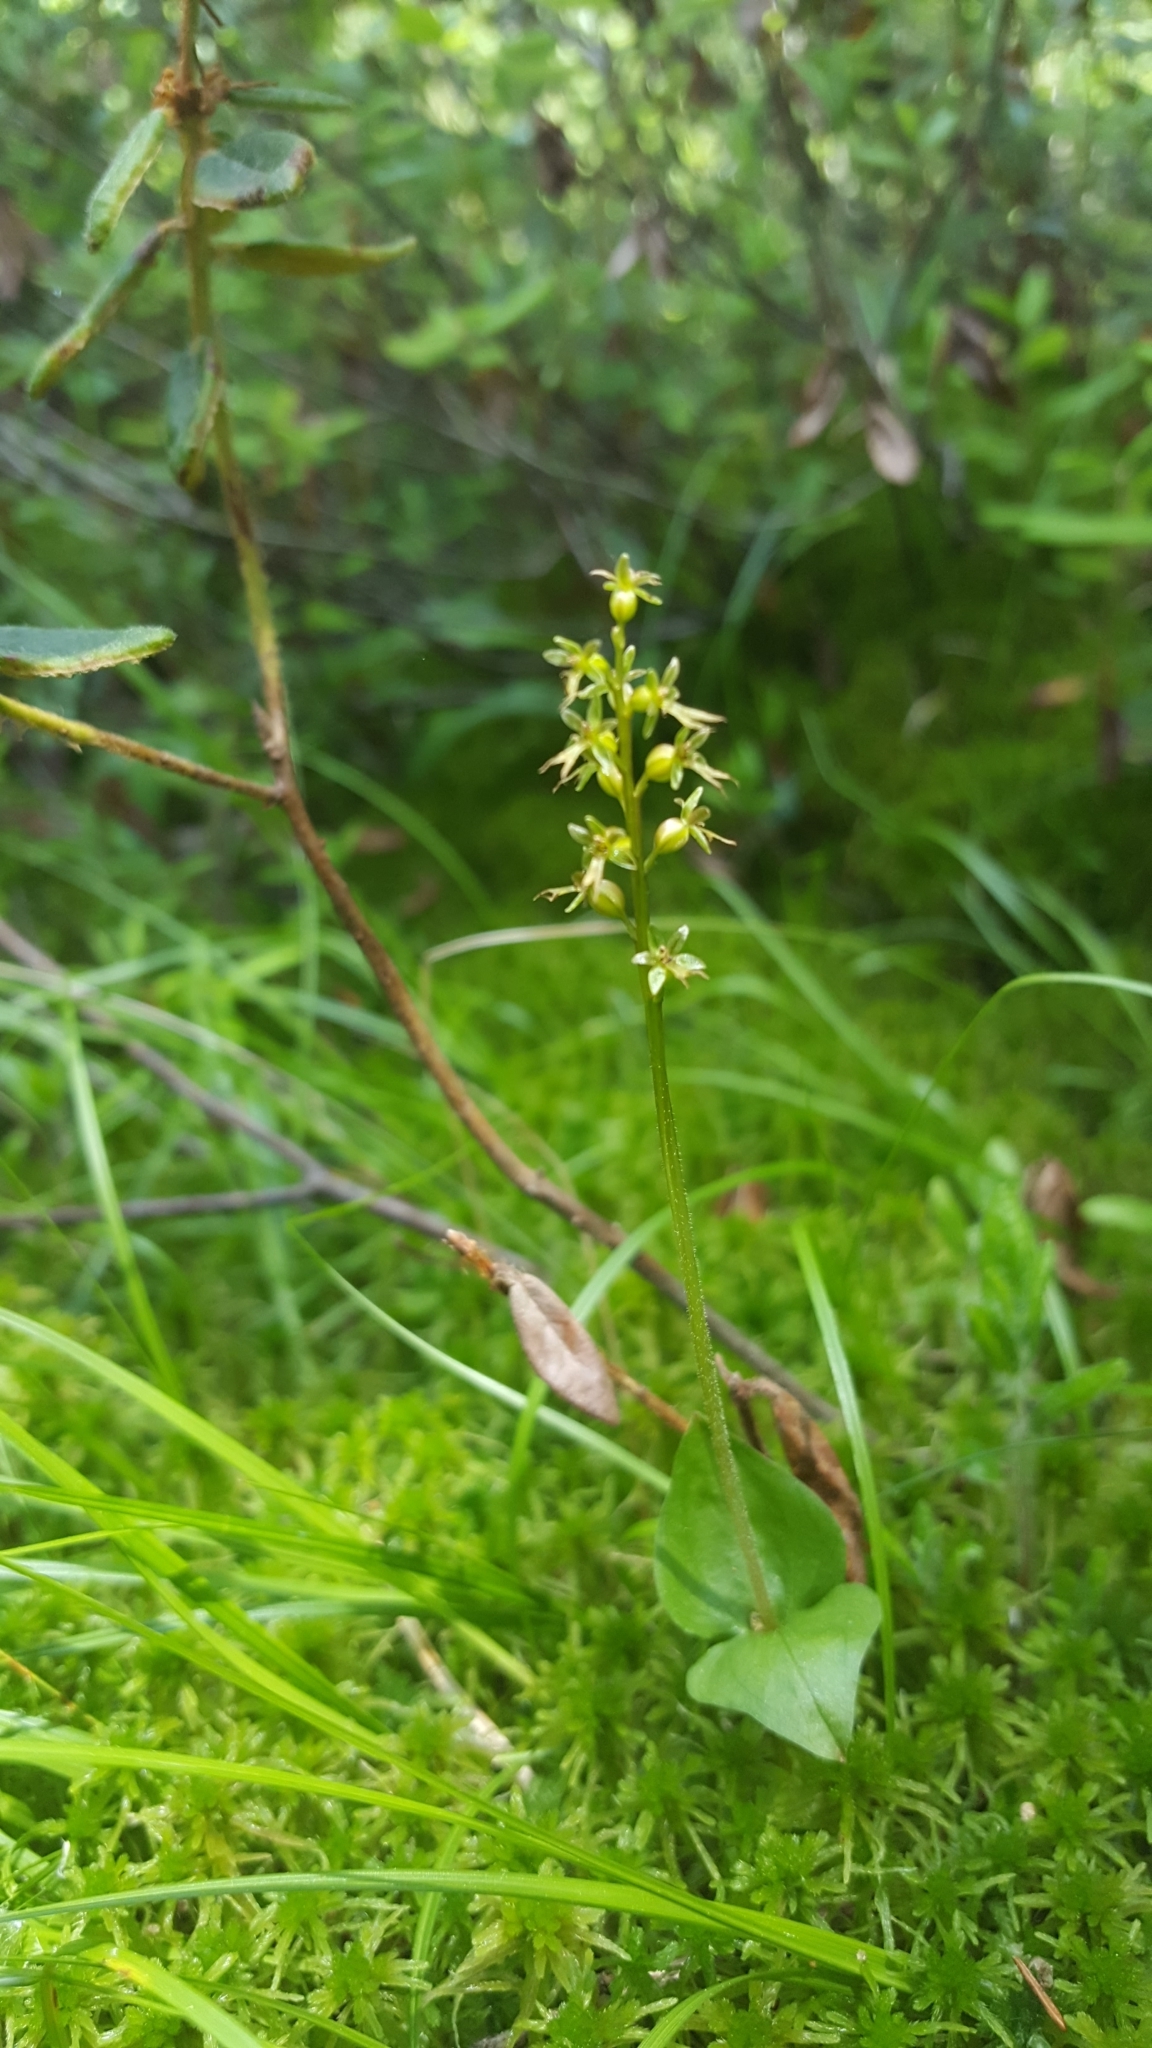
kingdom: Plantae
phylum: Tracheophyta
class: Liliopsida
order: Asparagales
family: Orchidaceae
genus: Neottia
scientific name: Neottia cordata
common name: Lesser twayblade
